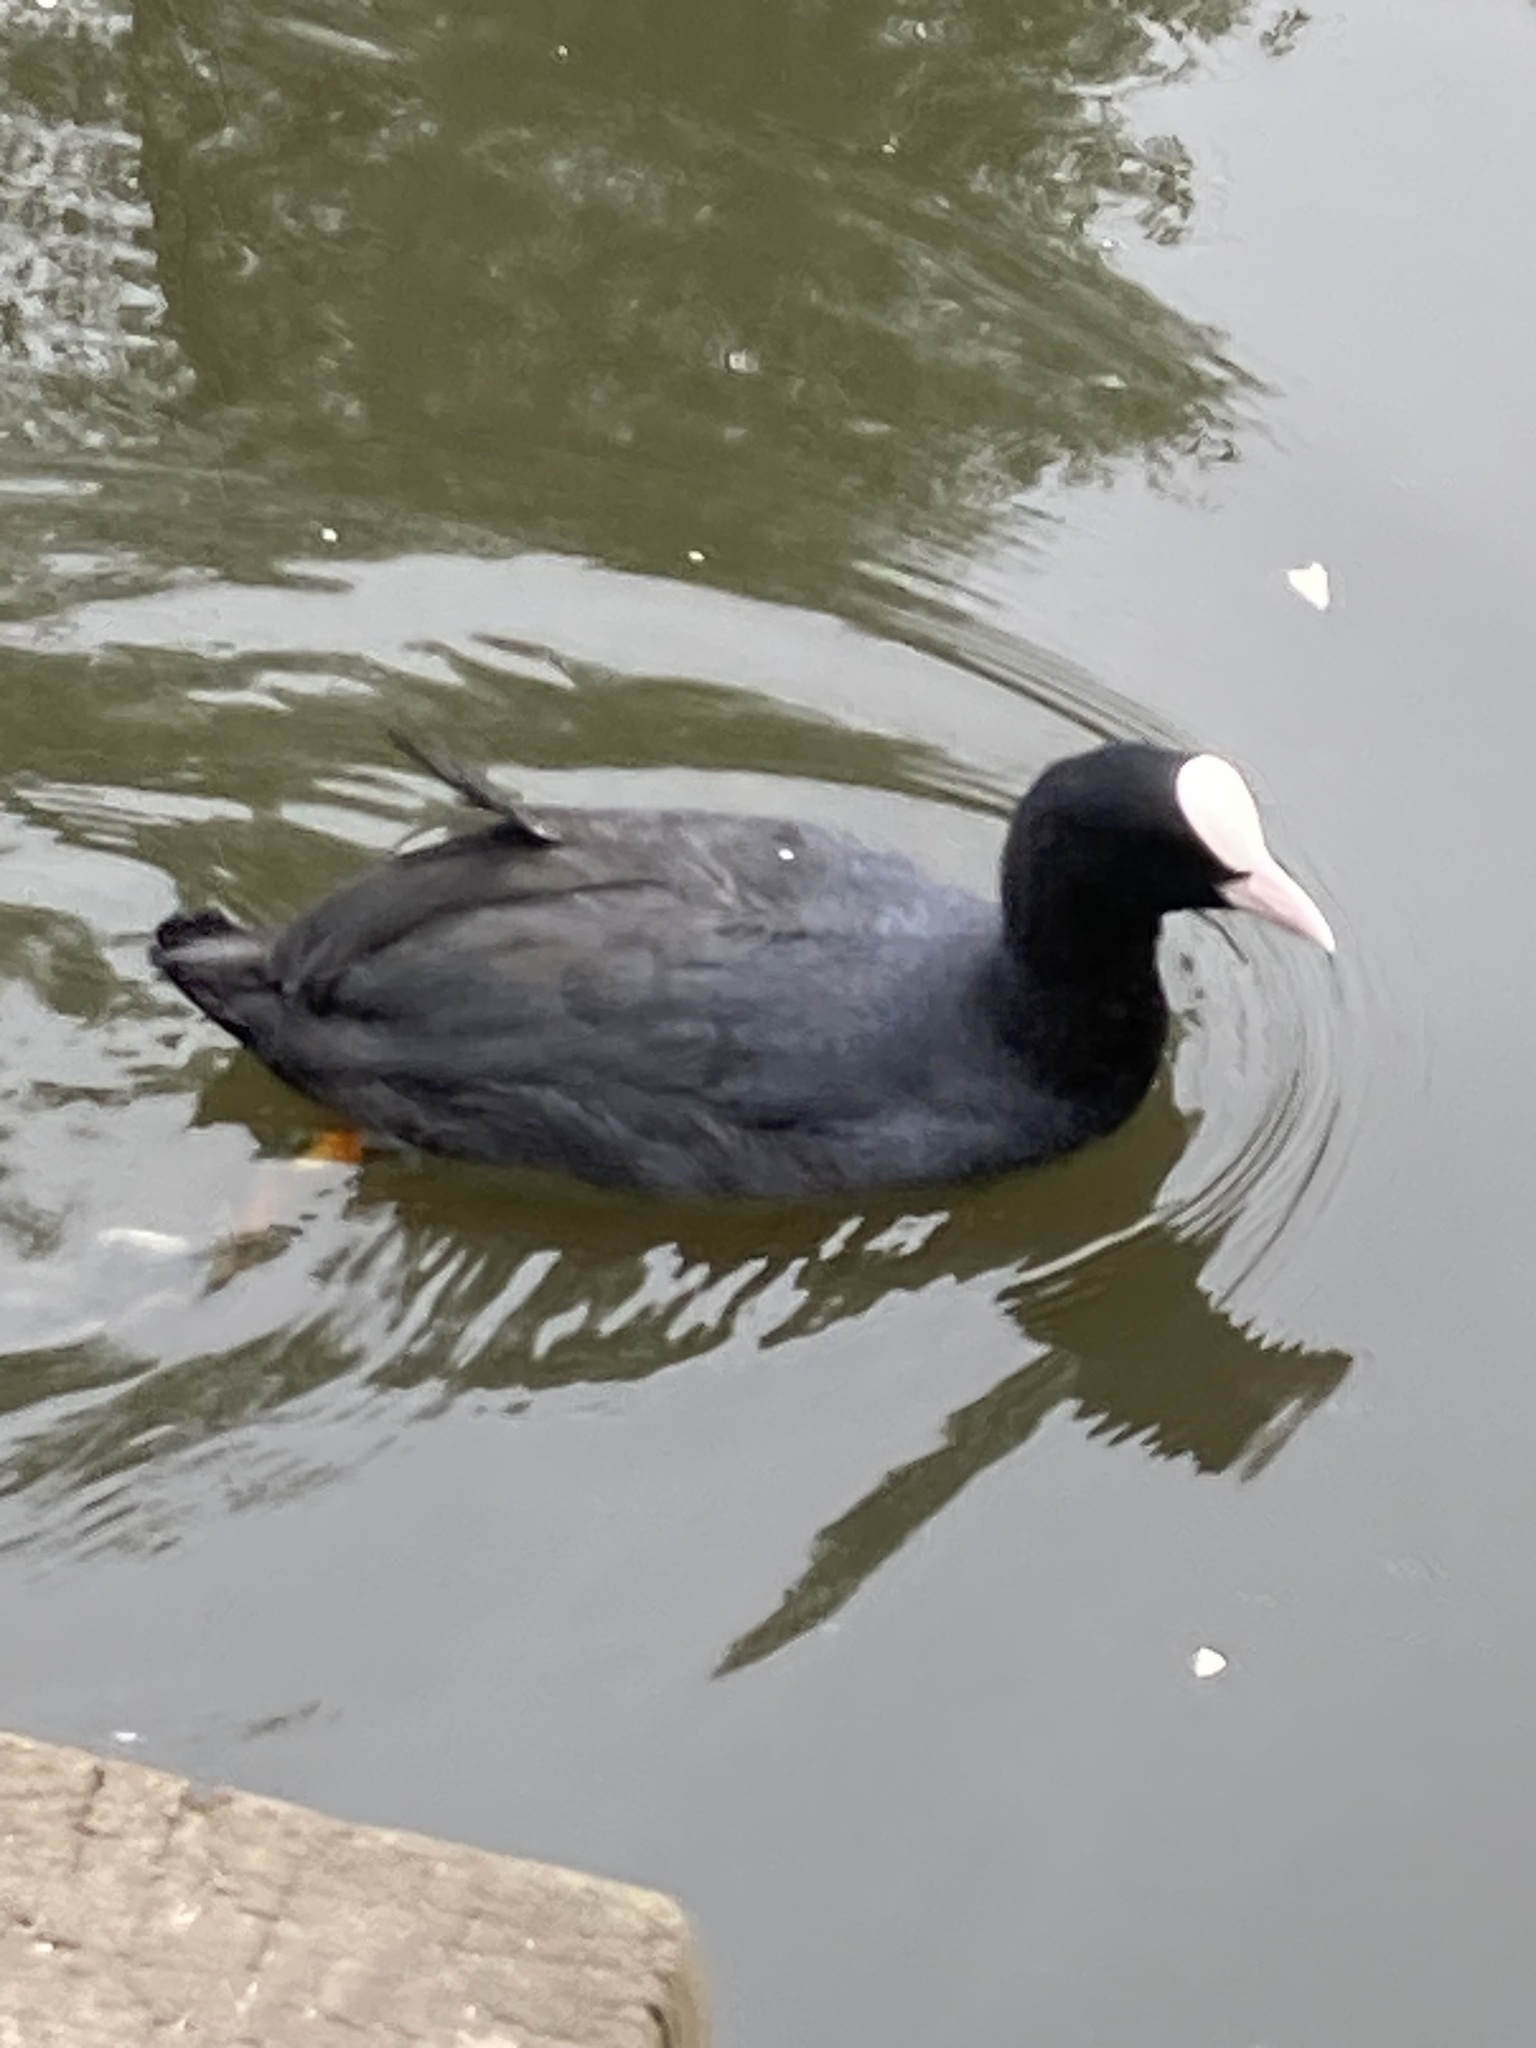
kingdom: Animalia
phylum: Chordata
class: Aves
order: Gruiformes
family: Rallidae
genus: Fulica
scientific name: Fulica atra
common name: Eurasian coot
